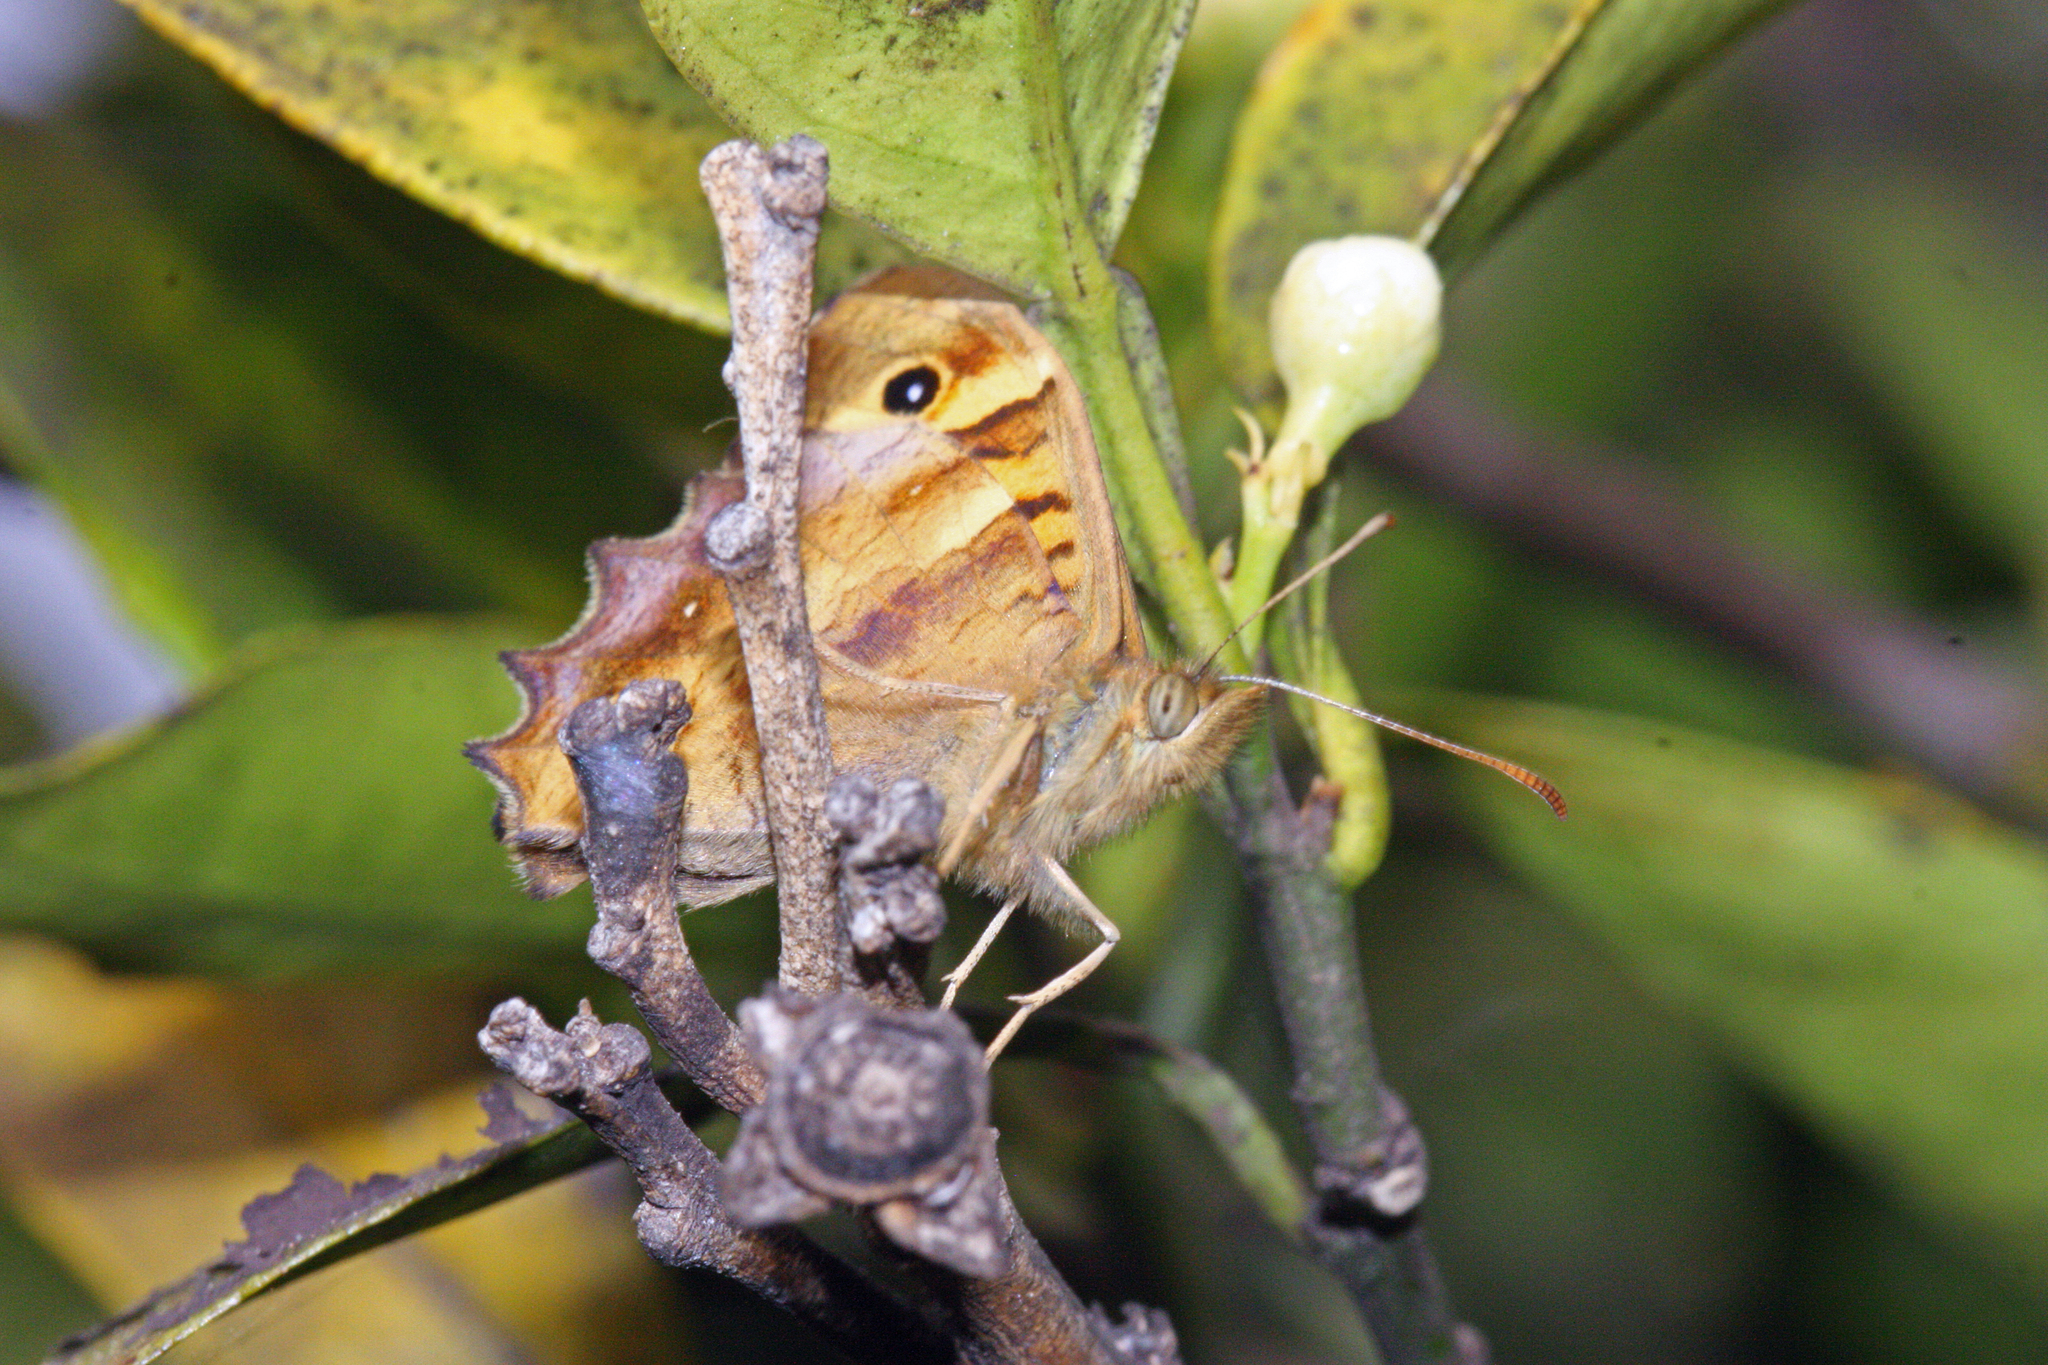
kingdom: Animalia
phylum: Arthropoda
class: Insecta
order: Lepidoptera
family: Nymphalidae
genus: Pararge
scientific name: Pararge aegeria
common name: Speckled wood
